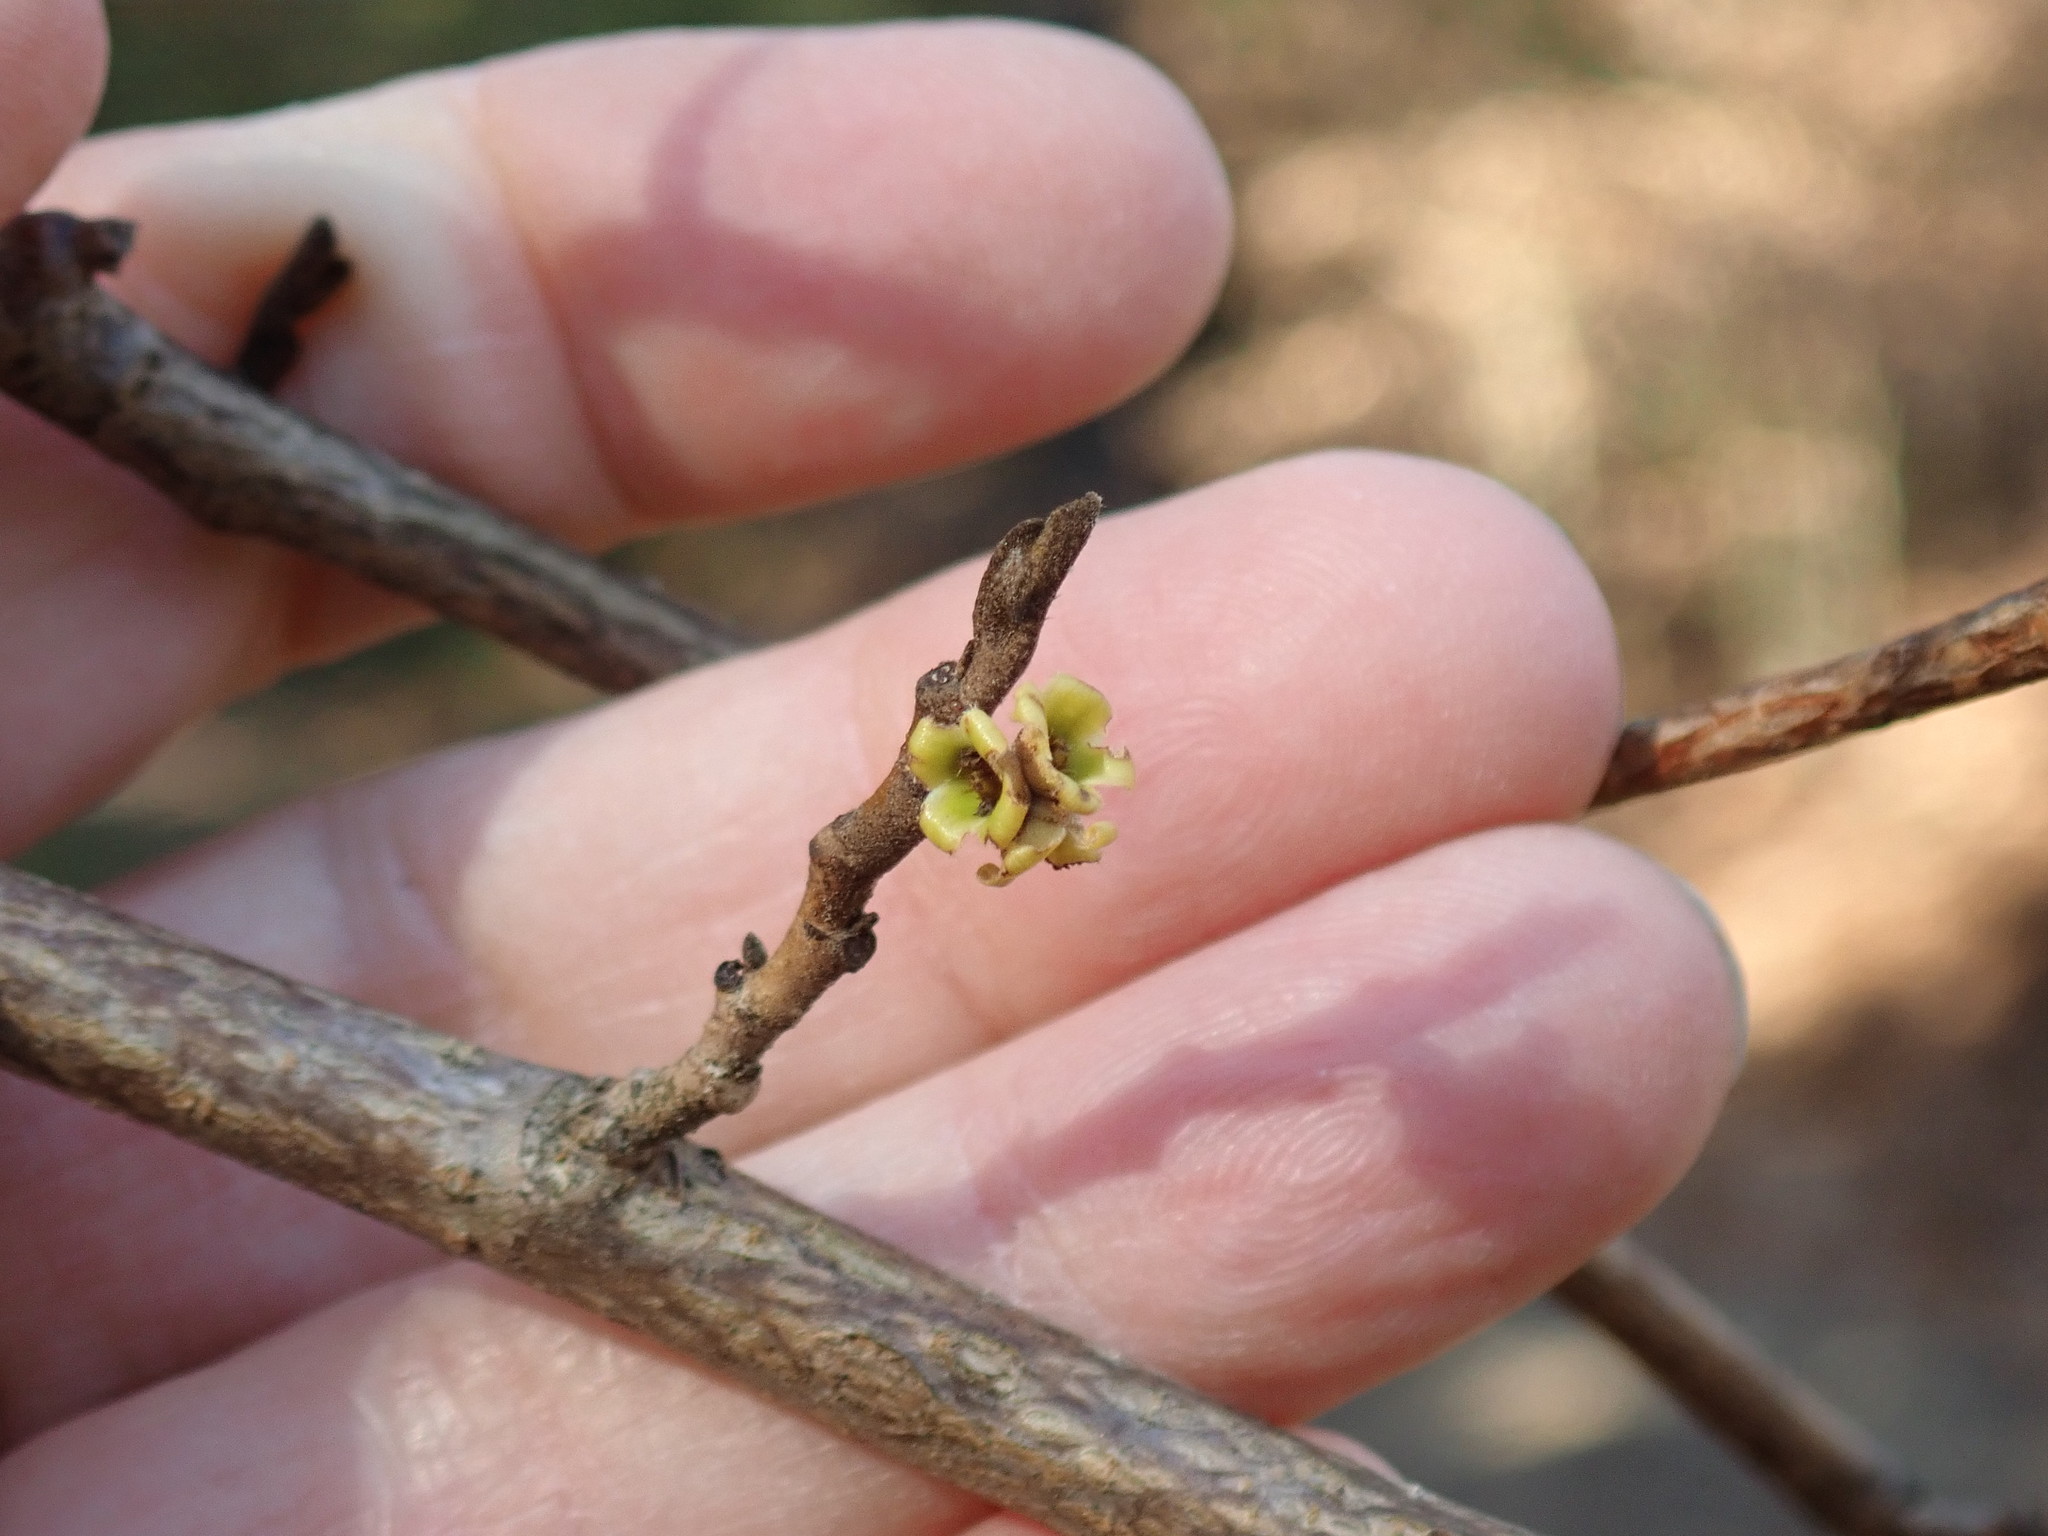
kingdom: Plantae
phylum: Tracheophyta
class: Magnoliopsida
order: Saxifragales
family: Hamamelidaceae
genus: Hamamelis
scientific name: Hamamelis virginiana
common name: Witch-hazel
